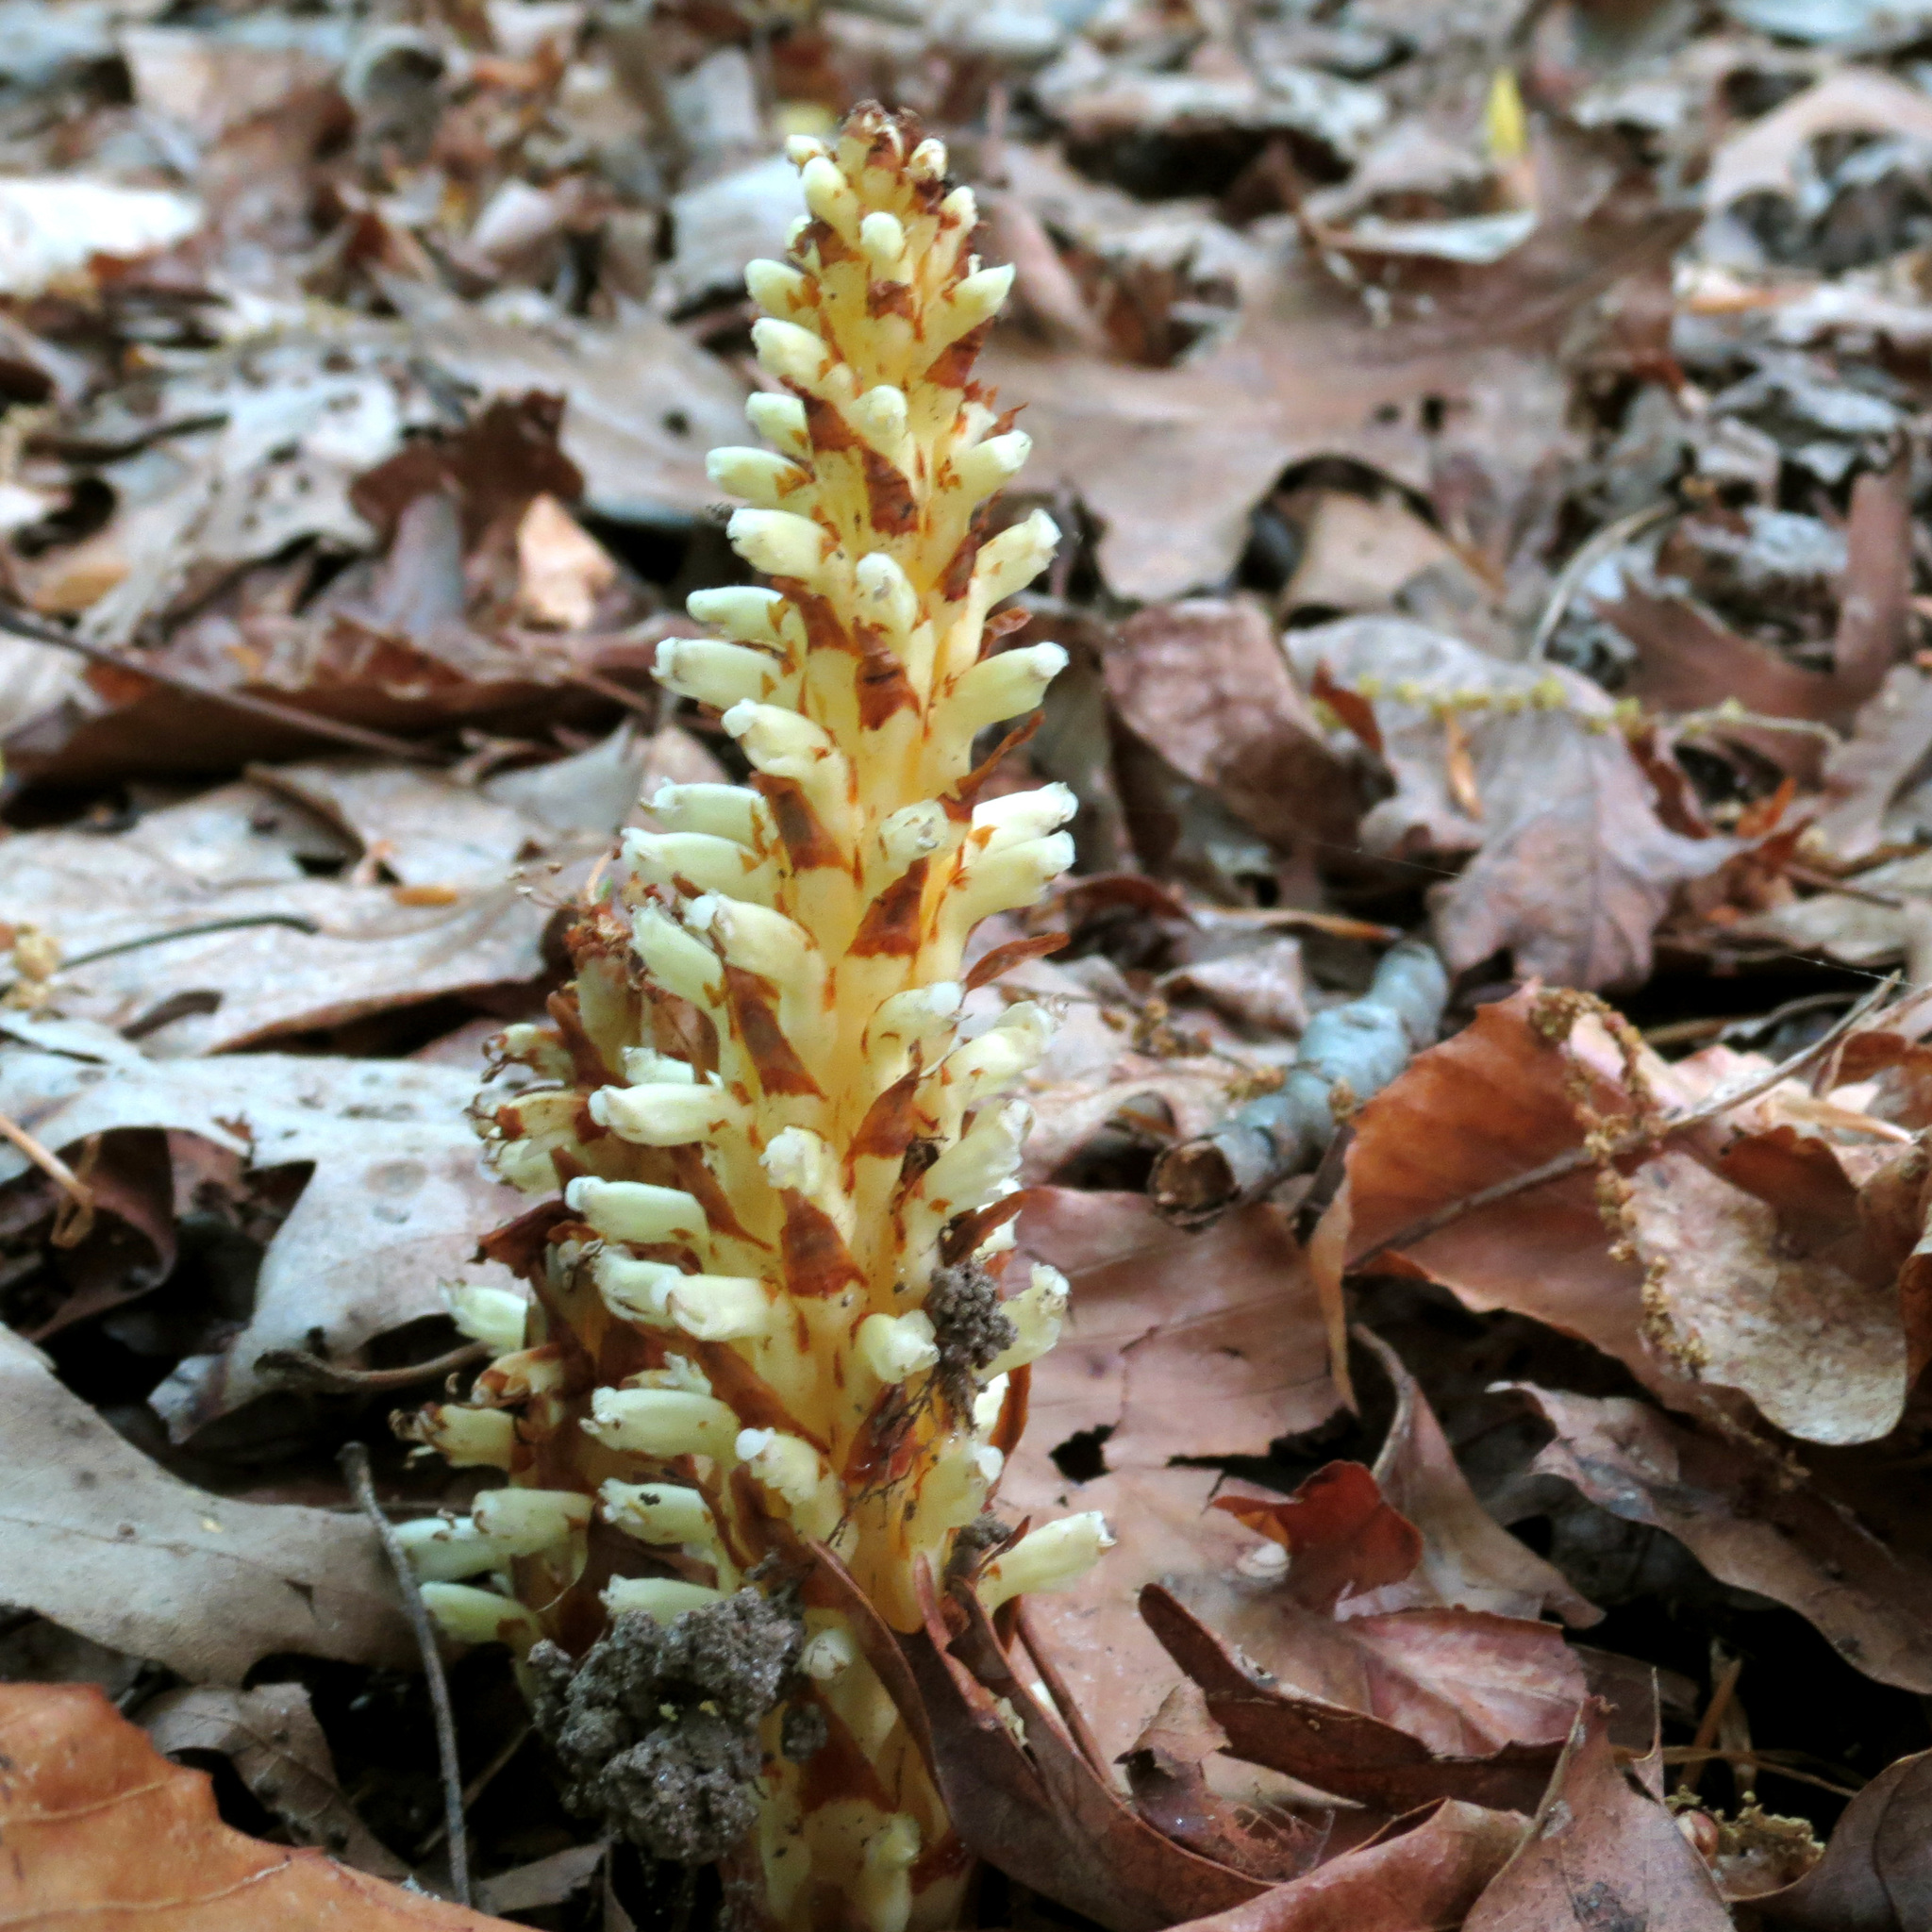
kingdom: Plantae
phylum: Tracheophyta
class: Magnoliopsida
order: Lamiales
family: Orobanchaceae
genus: Conopholis
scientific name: Conopholis americana
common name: American cancer-root
